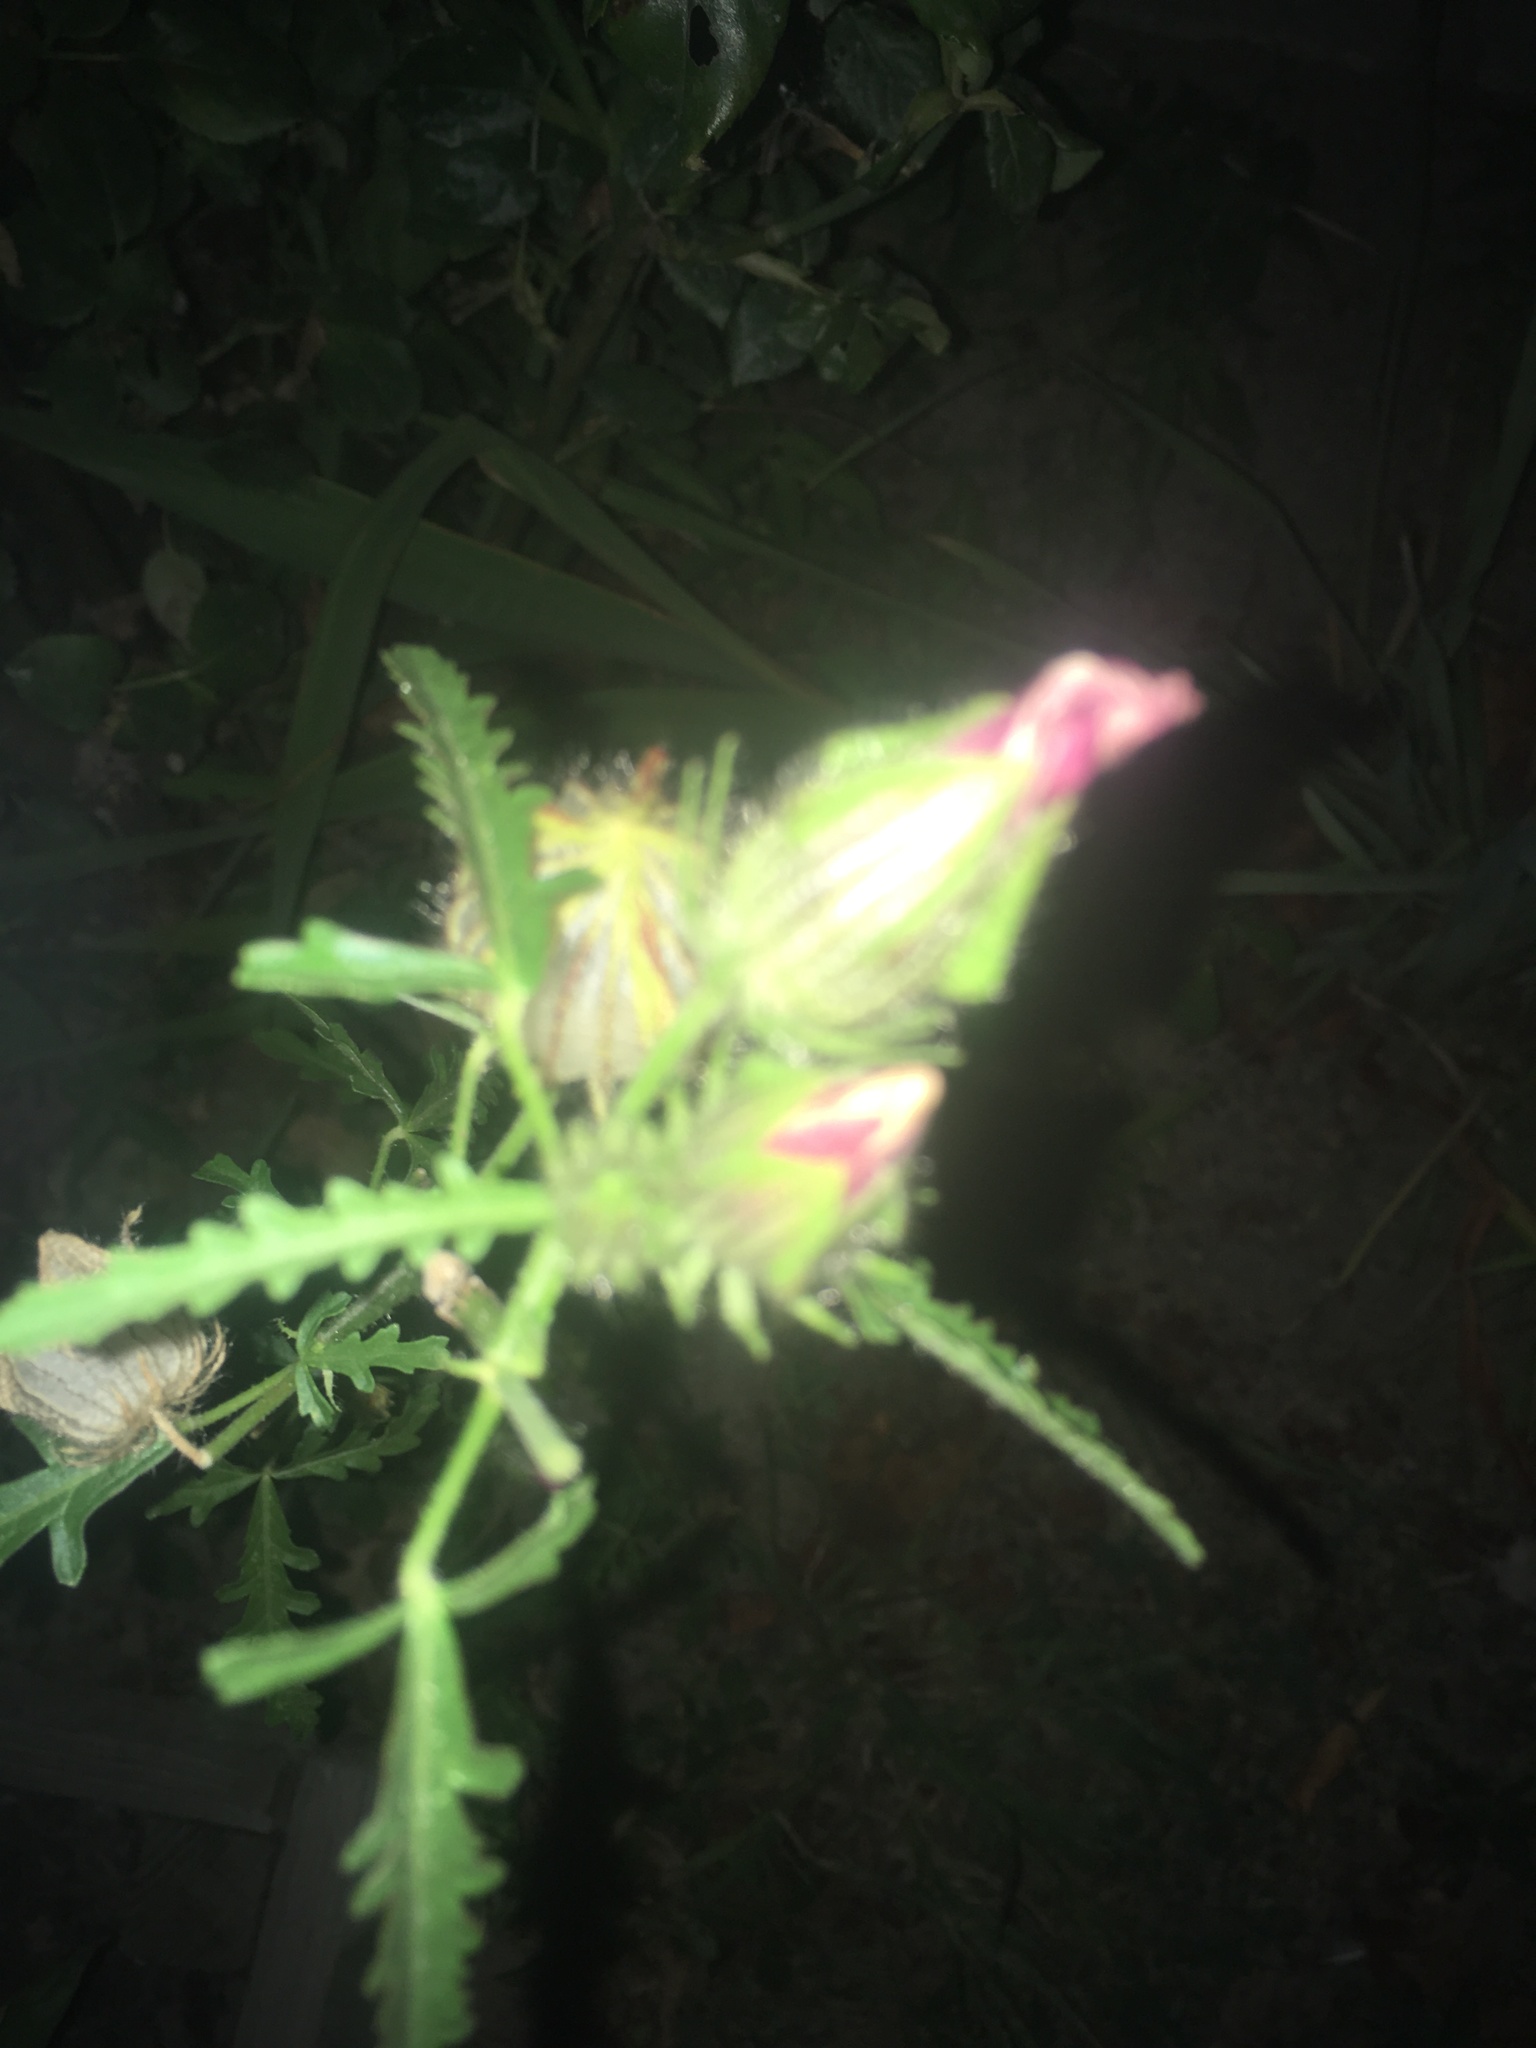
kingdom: Plantae
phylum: Tracheophyta
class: Magnoliopsida
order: Malvales
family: Malvaceae
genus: Althaea
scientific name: Althaea hirsuta
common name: Rough marsh-mallow
